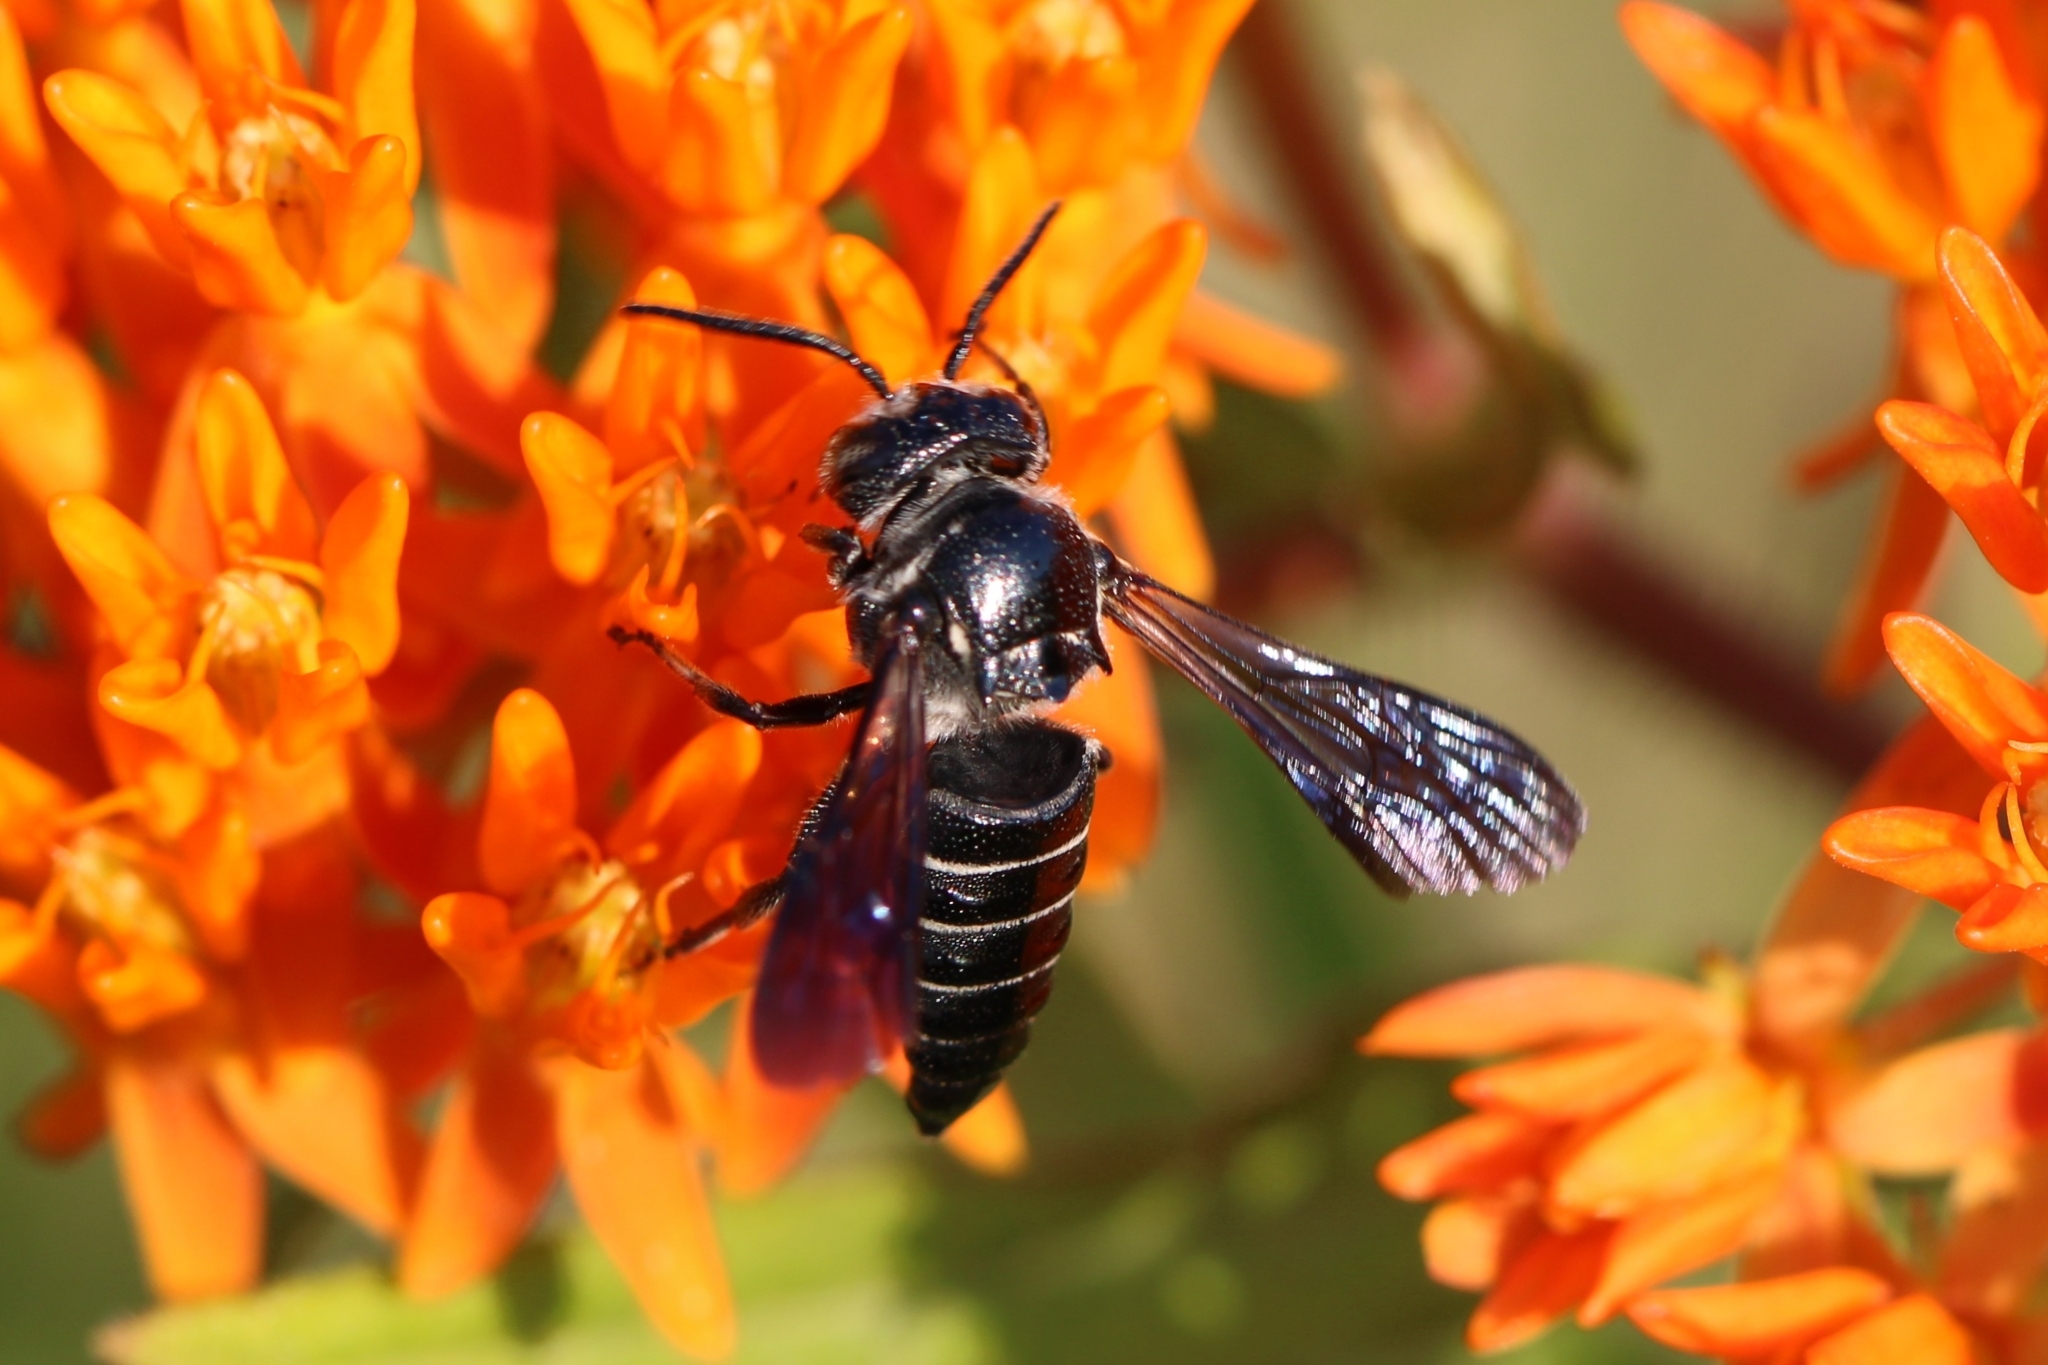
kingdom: Animalia
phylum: Arthropoda
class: Insecta
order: Hymenoptera
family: Megachilidae
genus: Coelioxys
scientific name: Coelioxys dolichos
